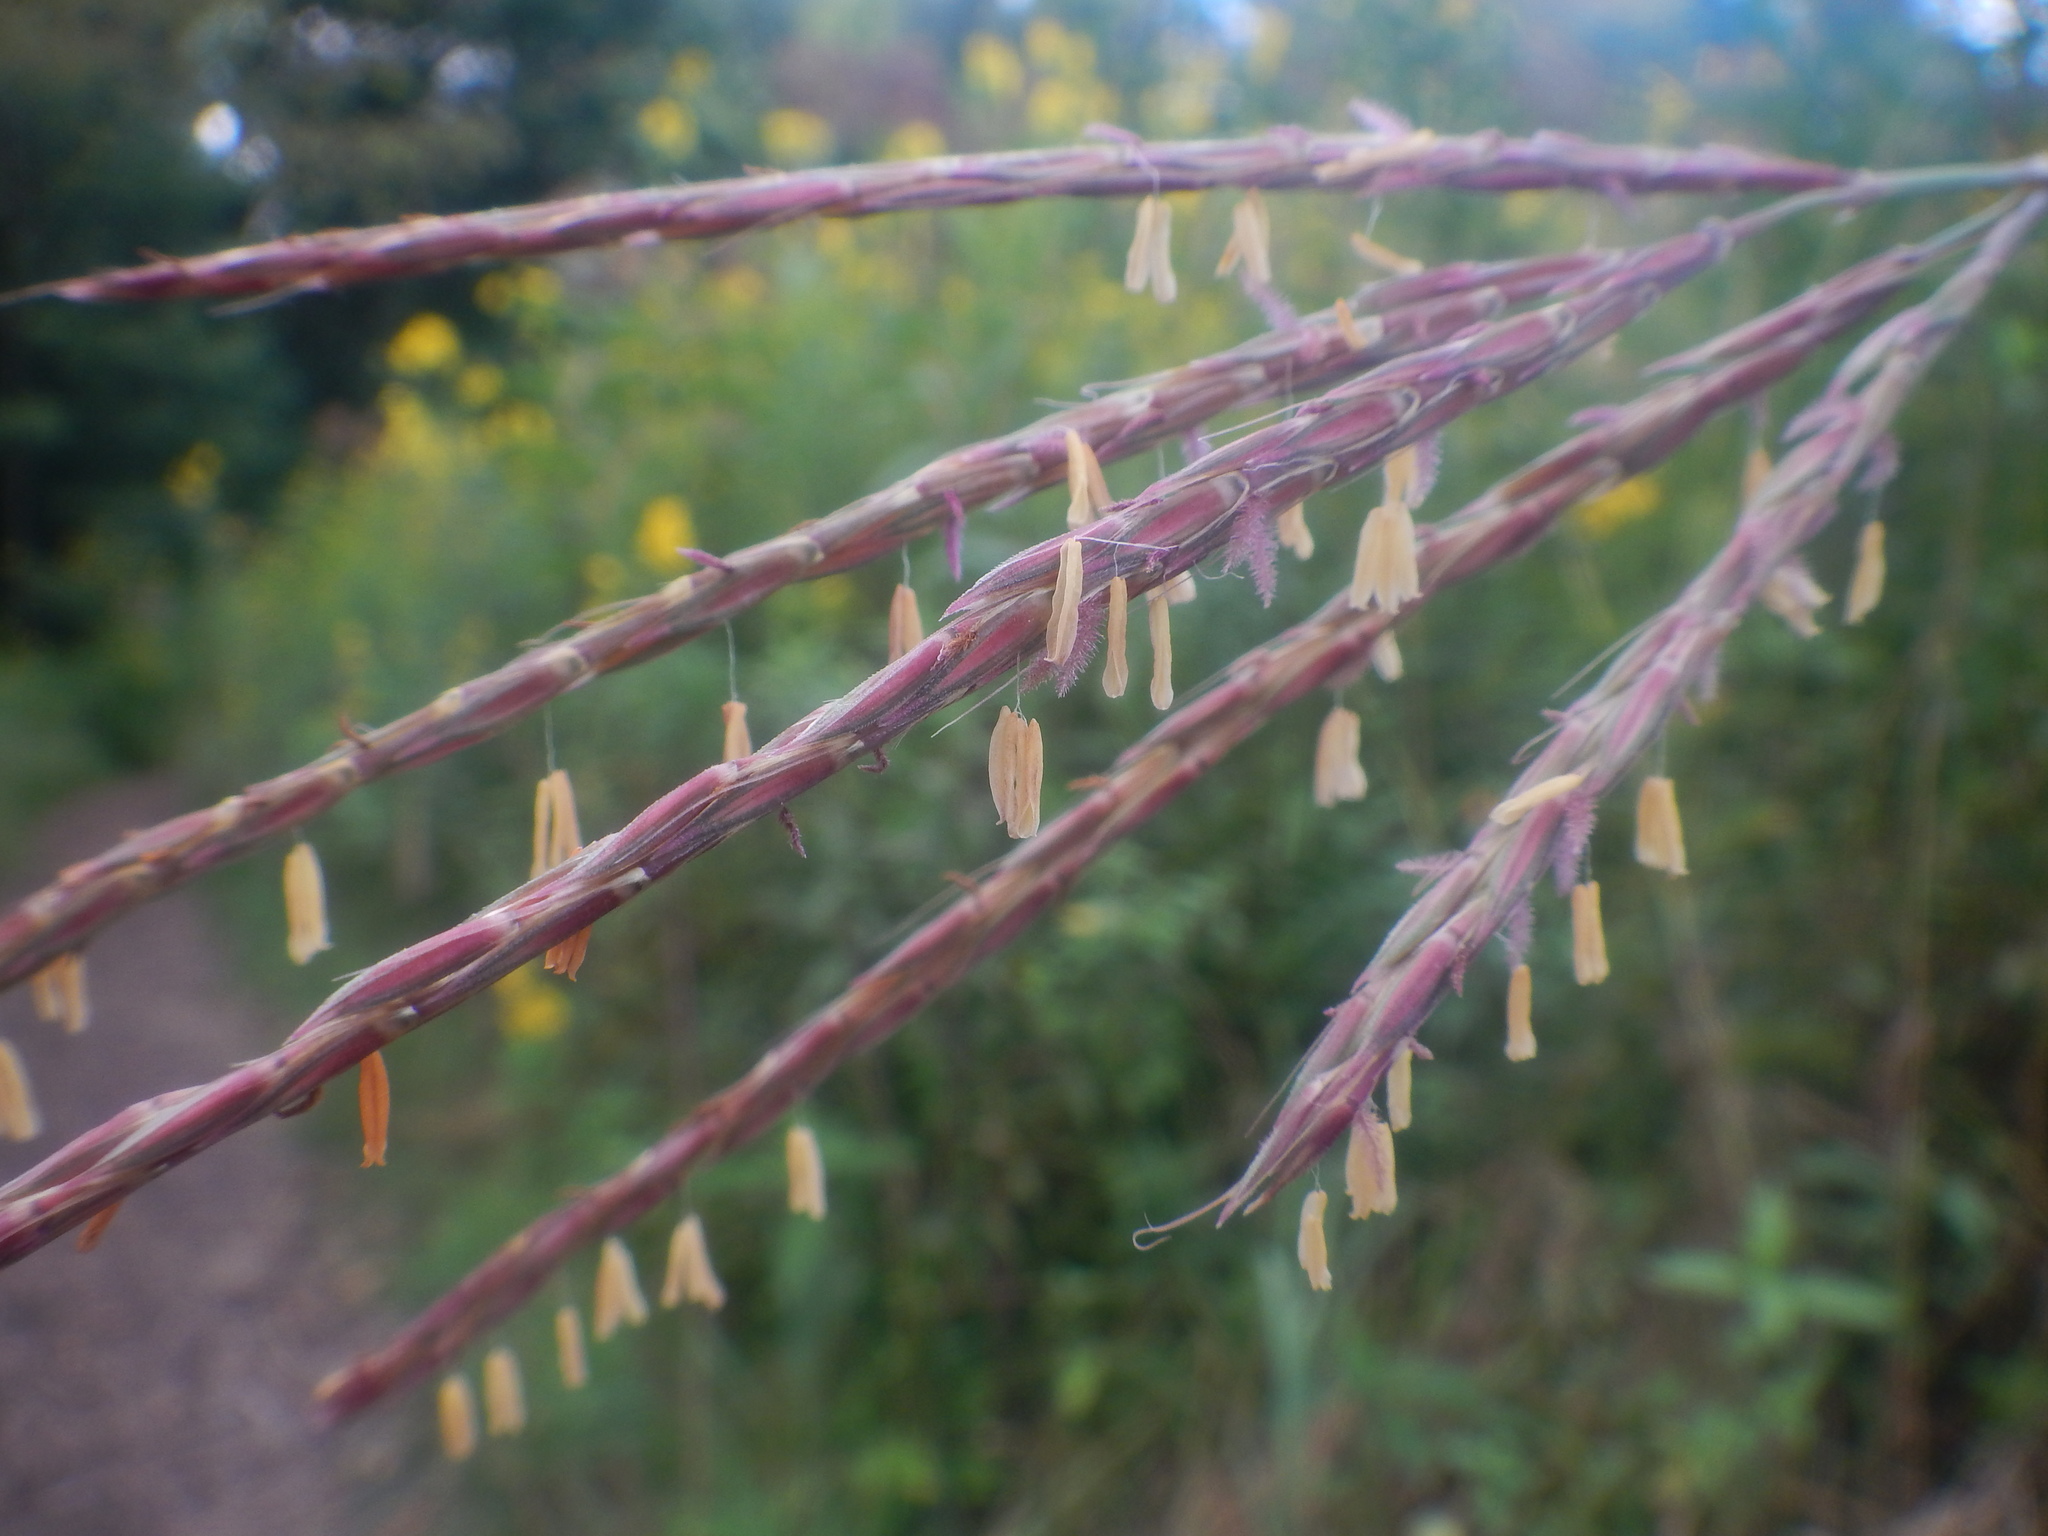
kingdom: Plantae
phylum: Tracheophyta
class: Liliopsida
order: Poales
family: Poaceae
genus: Andropogon
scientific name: Andropogon gerardi
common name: Big bluestem
